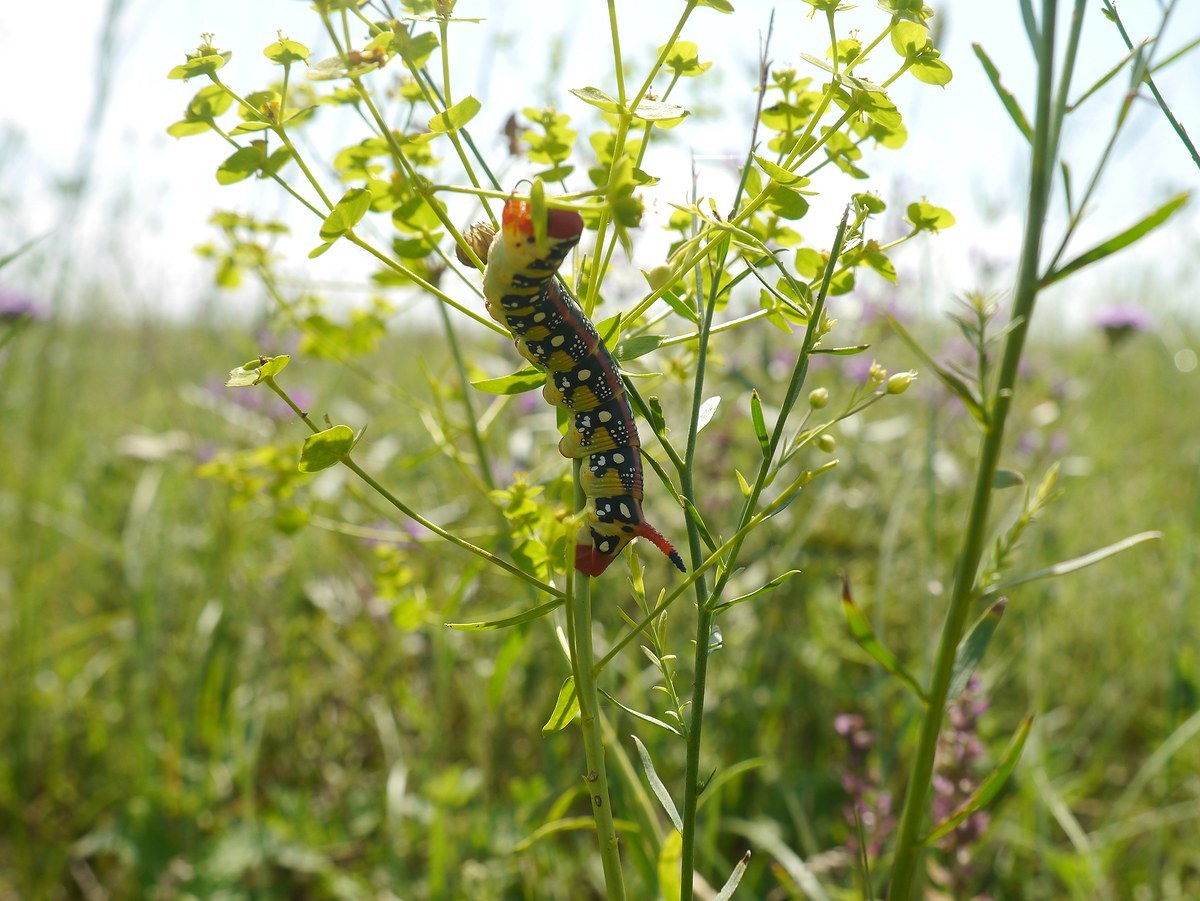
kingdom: Animalia
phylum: Arthropoda
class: Insecta
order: Lepidoptera
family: Sphingidae
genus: Hyles
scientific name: Hyles euphorbiae
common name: Spurge hawk-moth
